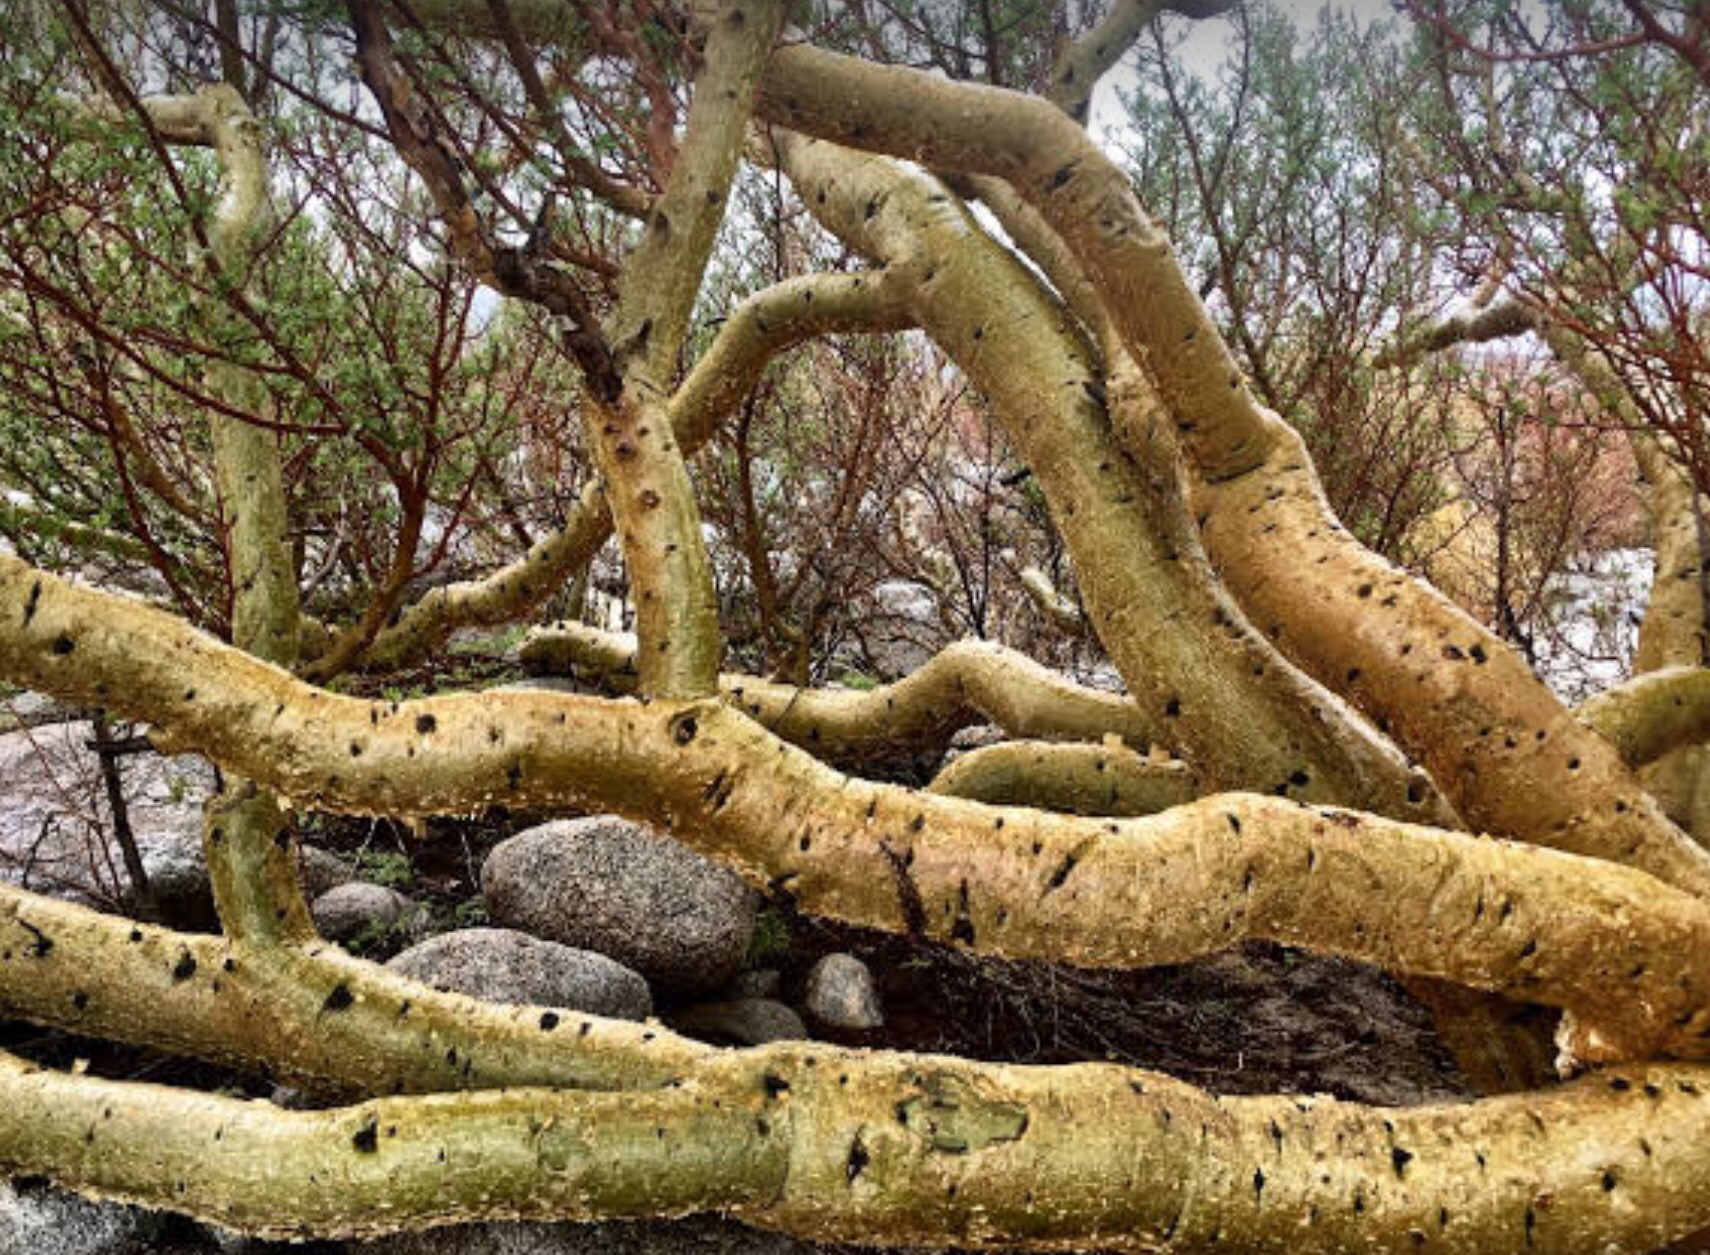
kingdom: Plantae
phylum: Tracheophyta
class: Magnoliopsida
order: Sapindales
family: Burseraceae
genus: Bursera
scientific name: Bursera microphylla
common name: Elephant tree
